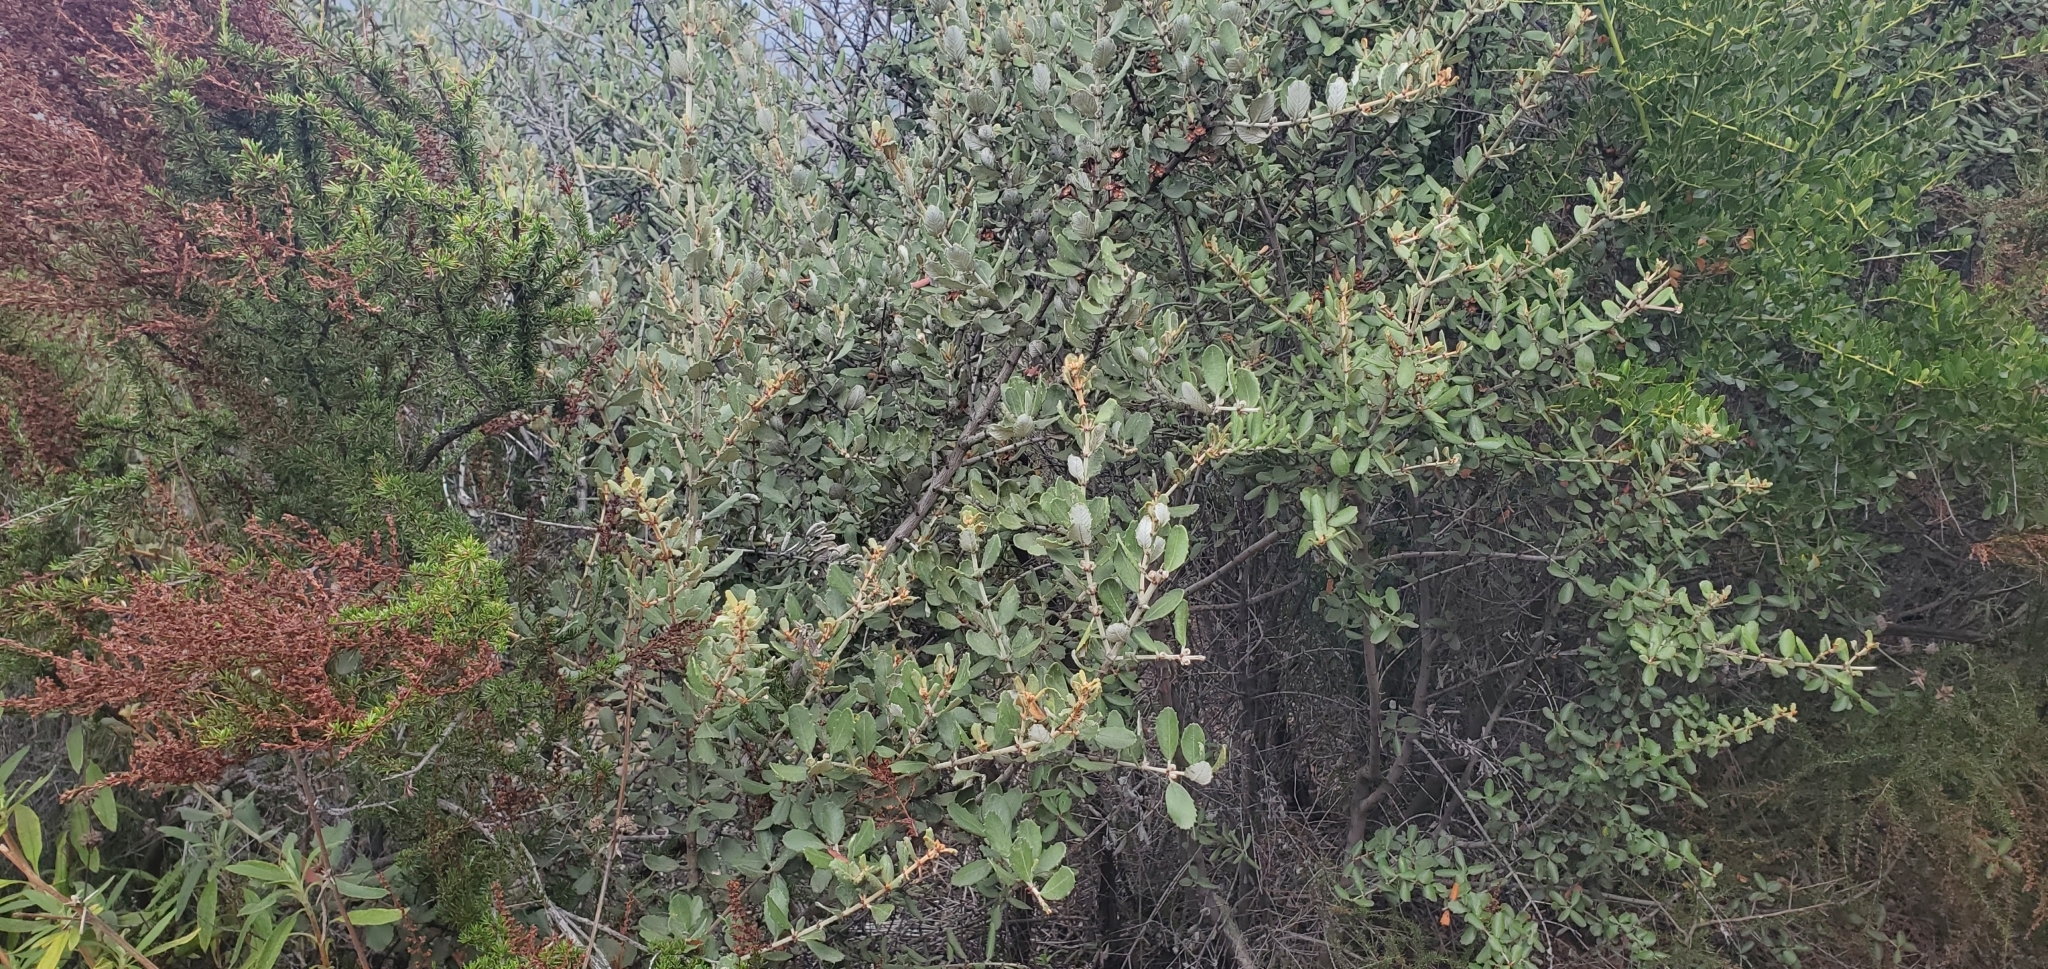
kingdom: Plantae
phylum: Tracheophyta
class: Magnoliopsida
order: Rosales
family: Rhamnaceae
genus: Ceanothus
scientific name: Ceanothus crassifolius
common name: Hoaryleaf ceanothus
